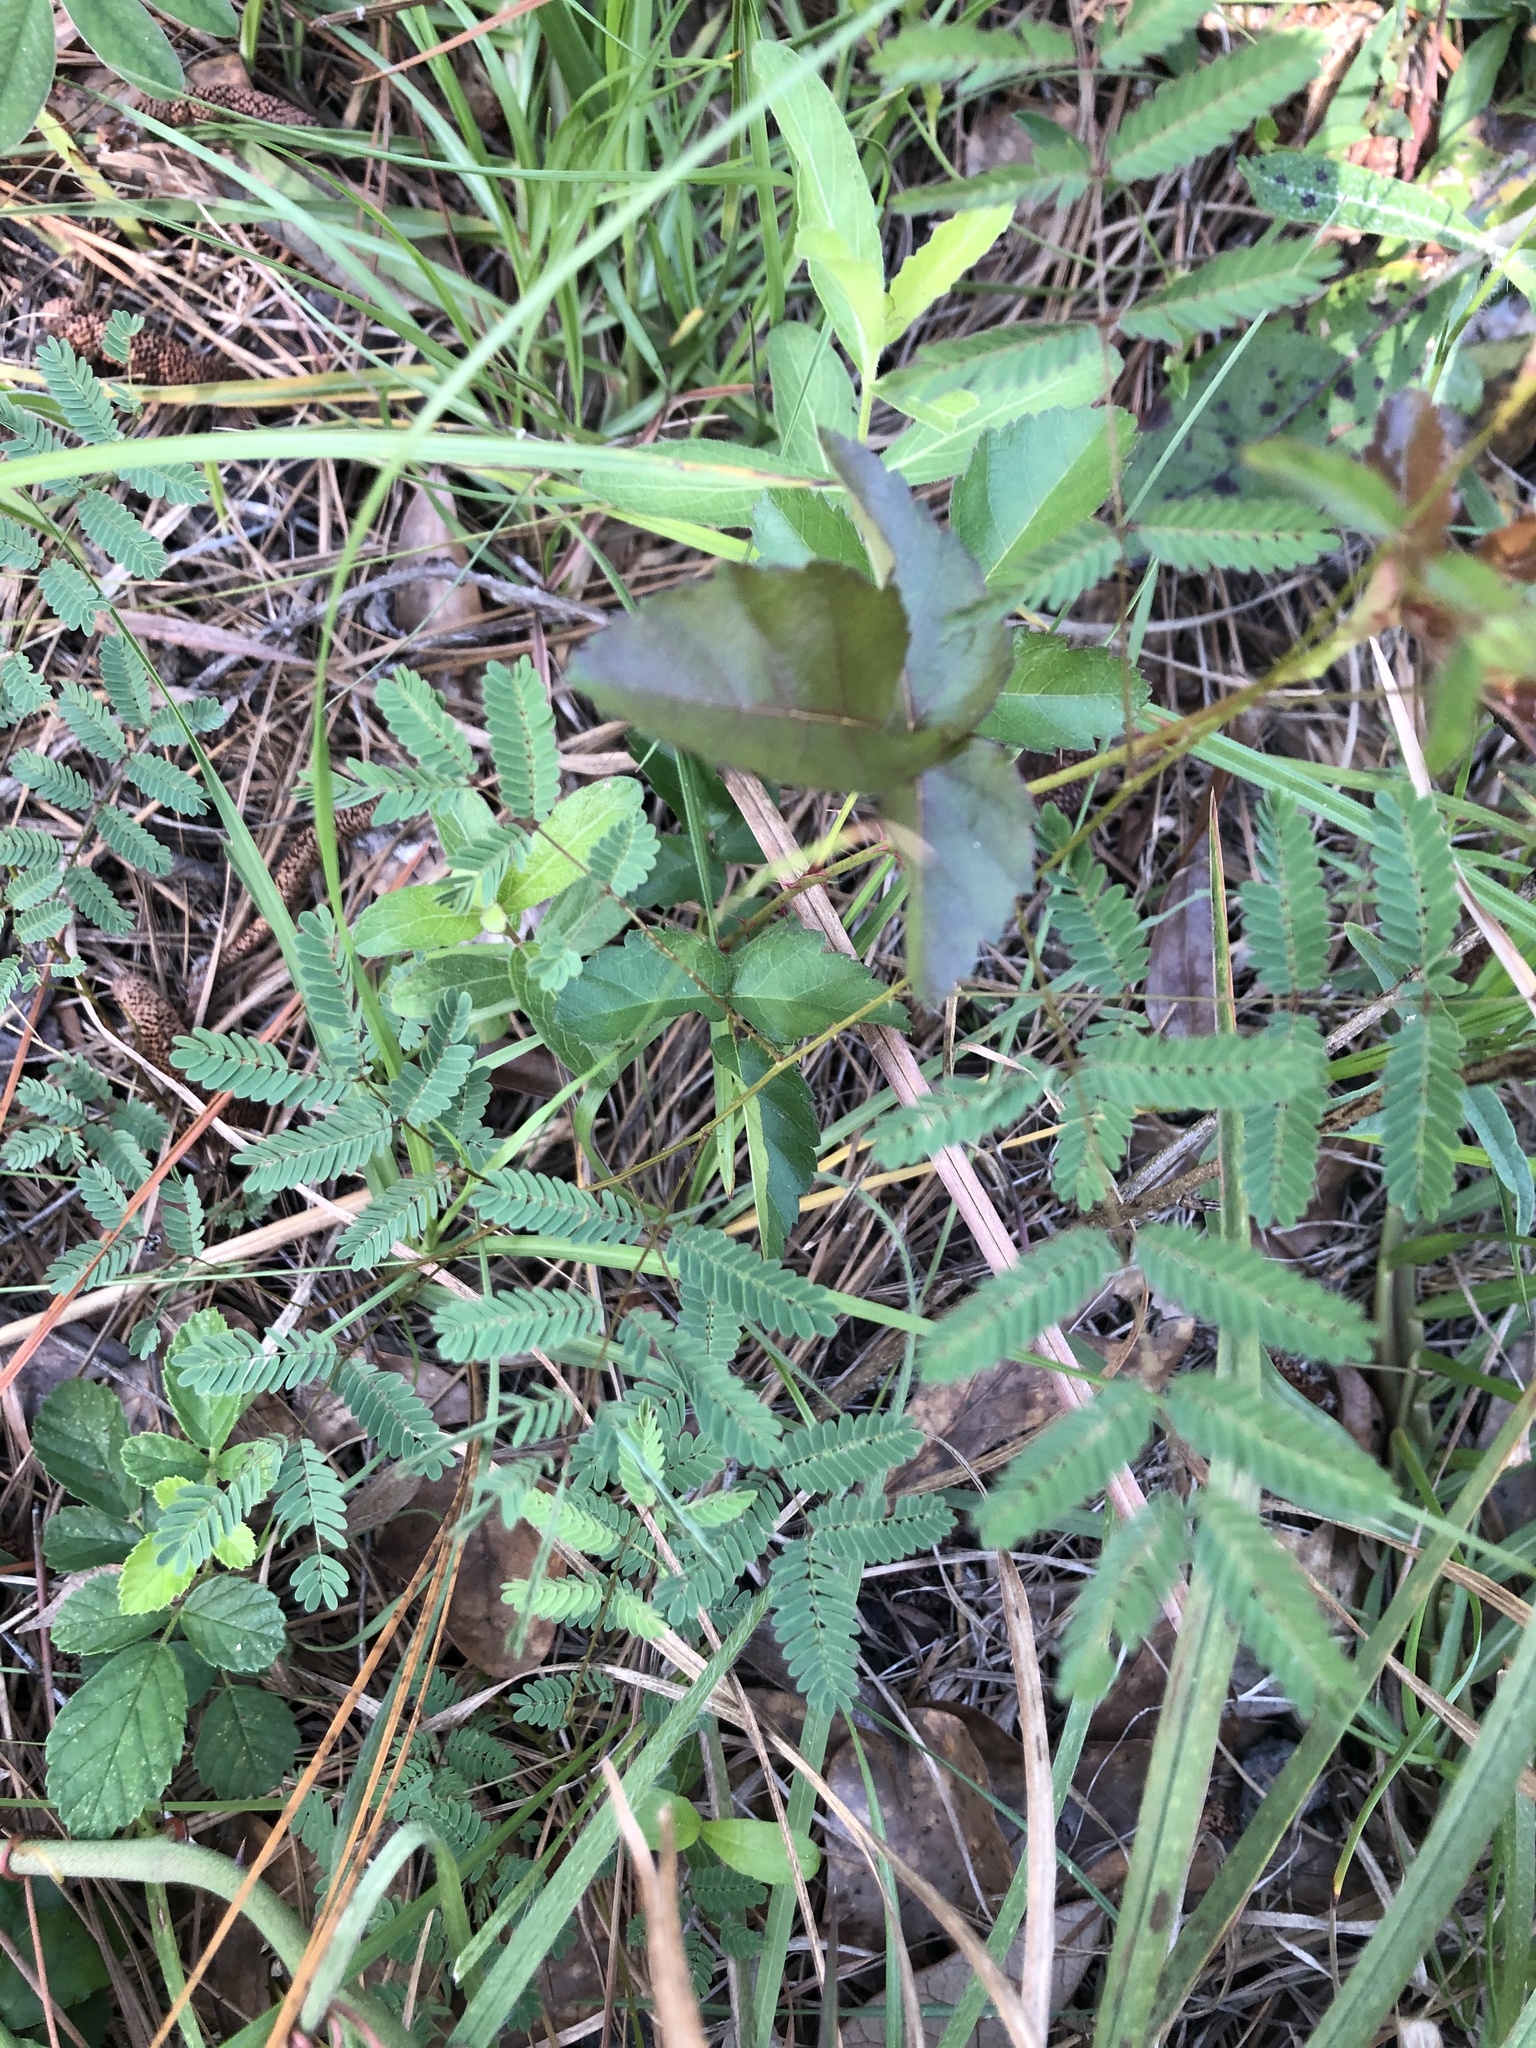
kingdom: Plantae
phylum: Tracheophyta
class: Magnoliopsida
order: Fabales
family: Fabaceae
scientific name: Fabaceae
